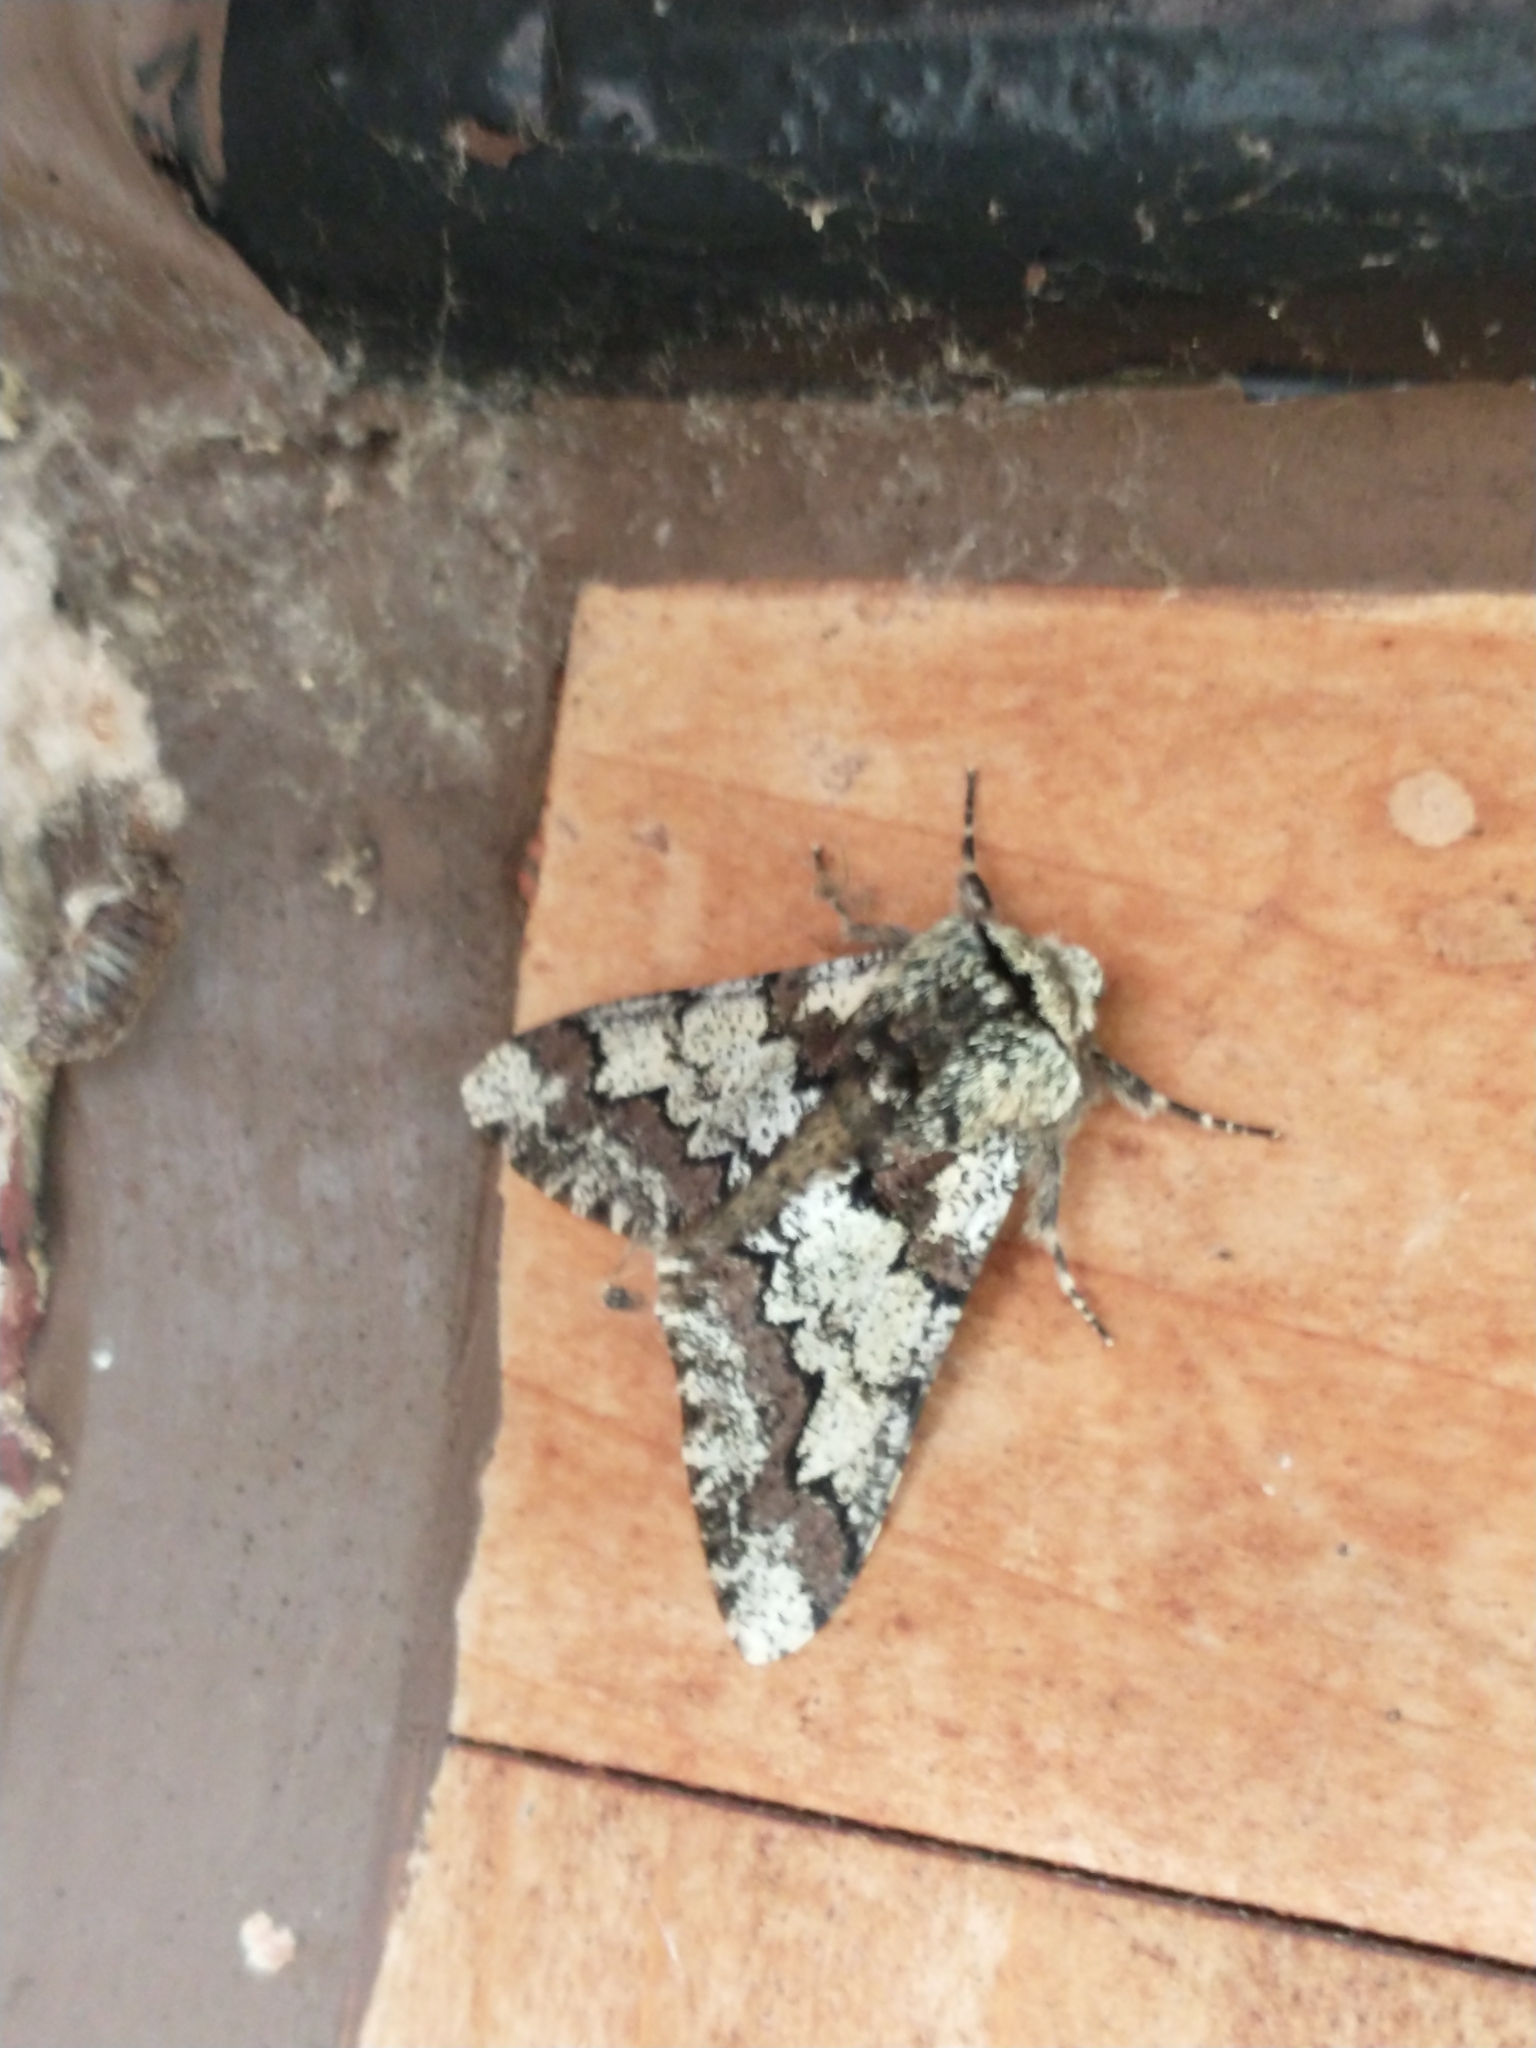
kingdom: Animalia
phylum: Arthropoda
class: Insecta
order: Lepidoptera
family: Geometridae
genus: Biston
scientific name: Biston strataria
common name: Oak beauty
